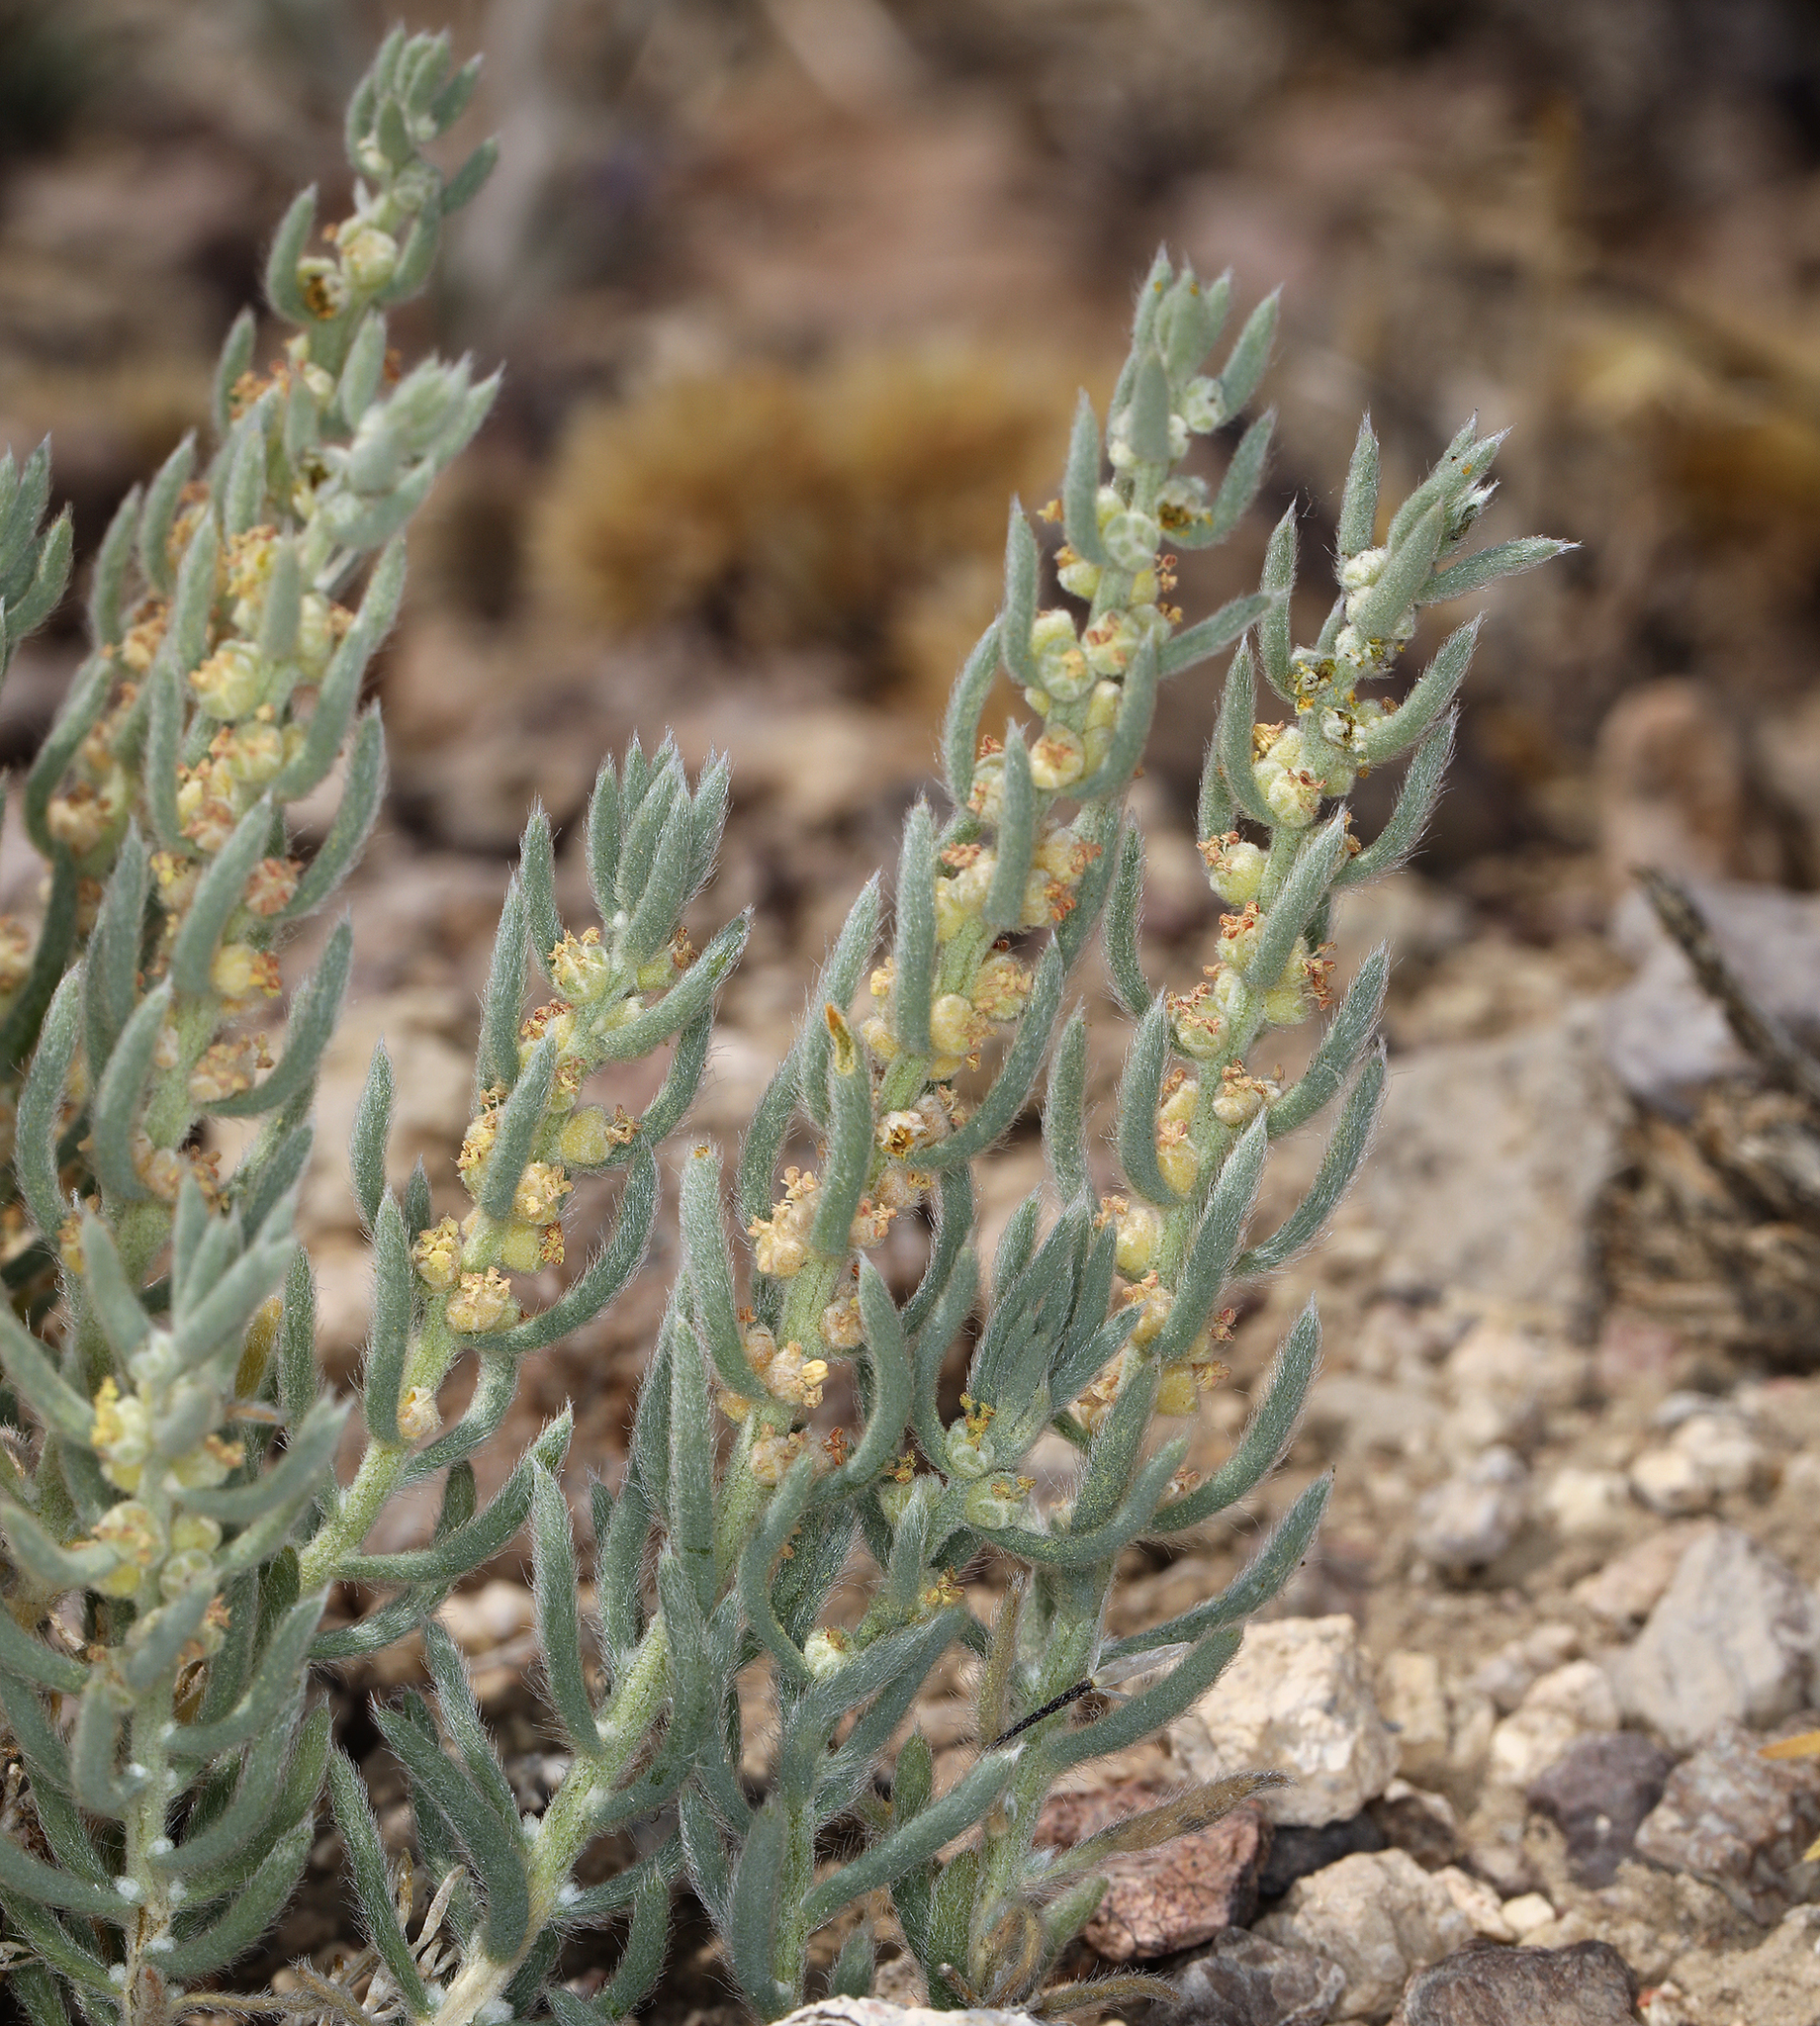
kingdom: Plantae
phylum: Tracheophyta
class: Magnoliopsida
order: Caryophyllales
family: Amaranthaceae
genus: Neokochia
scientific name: Neokochia americana
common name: Perennial summer-cypress
